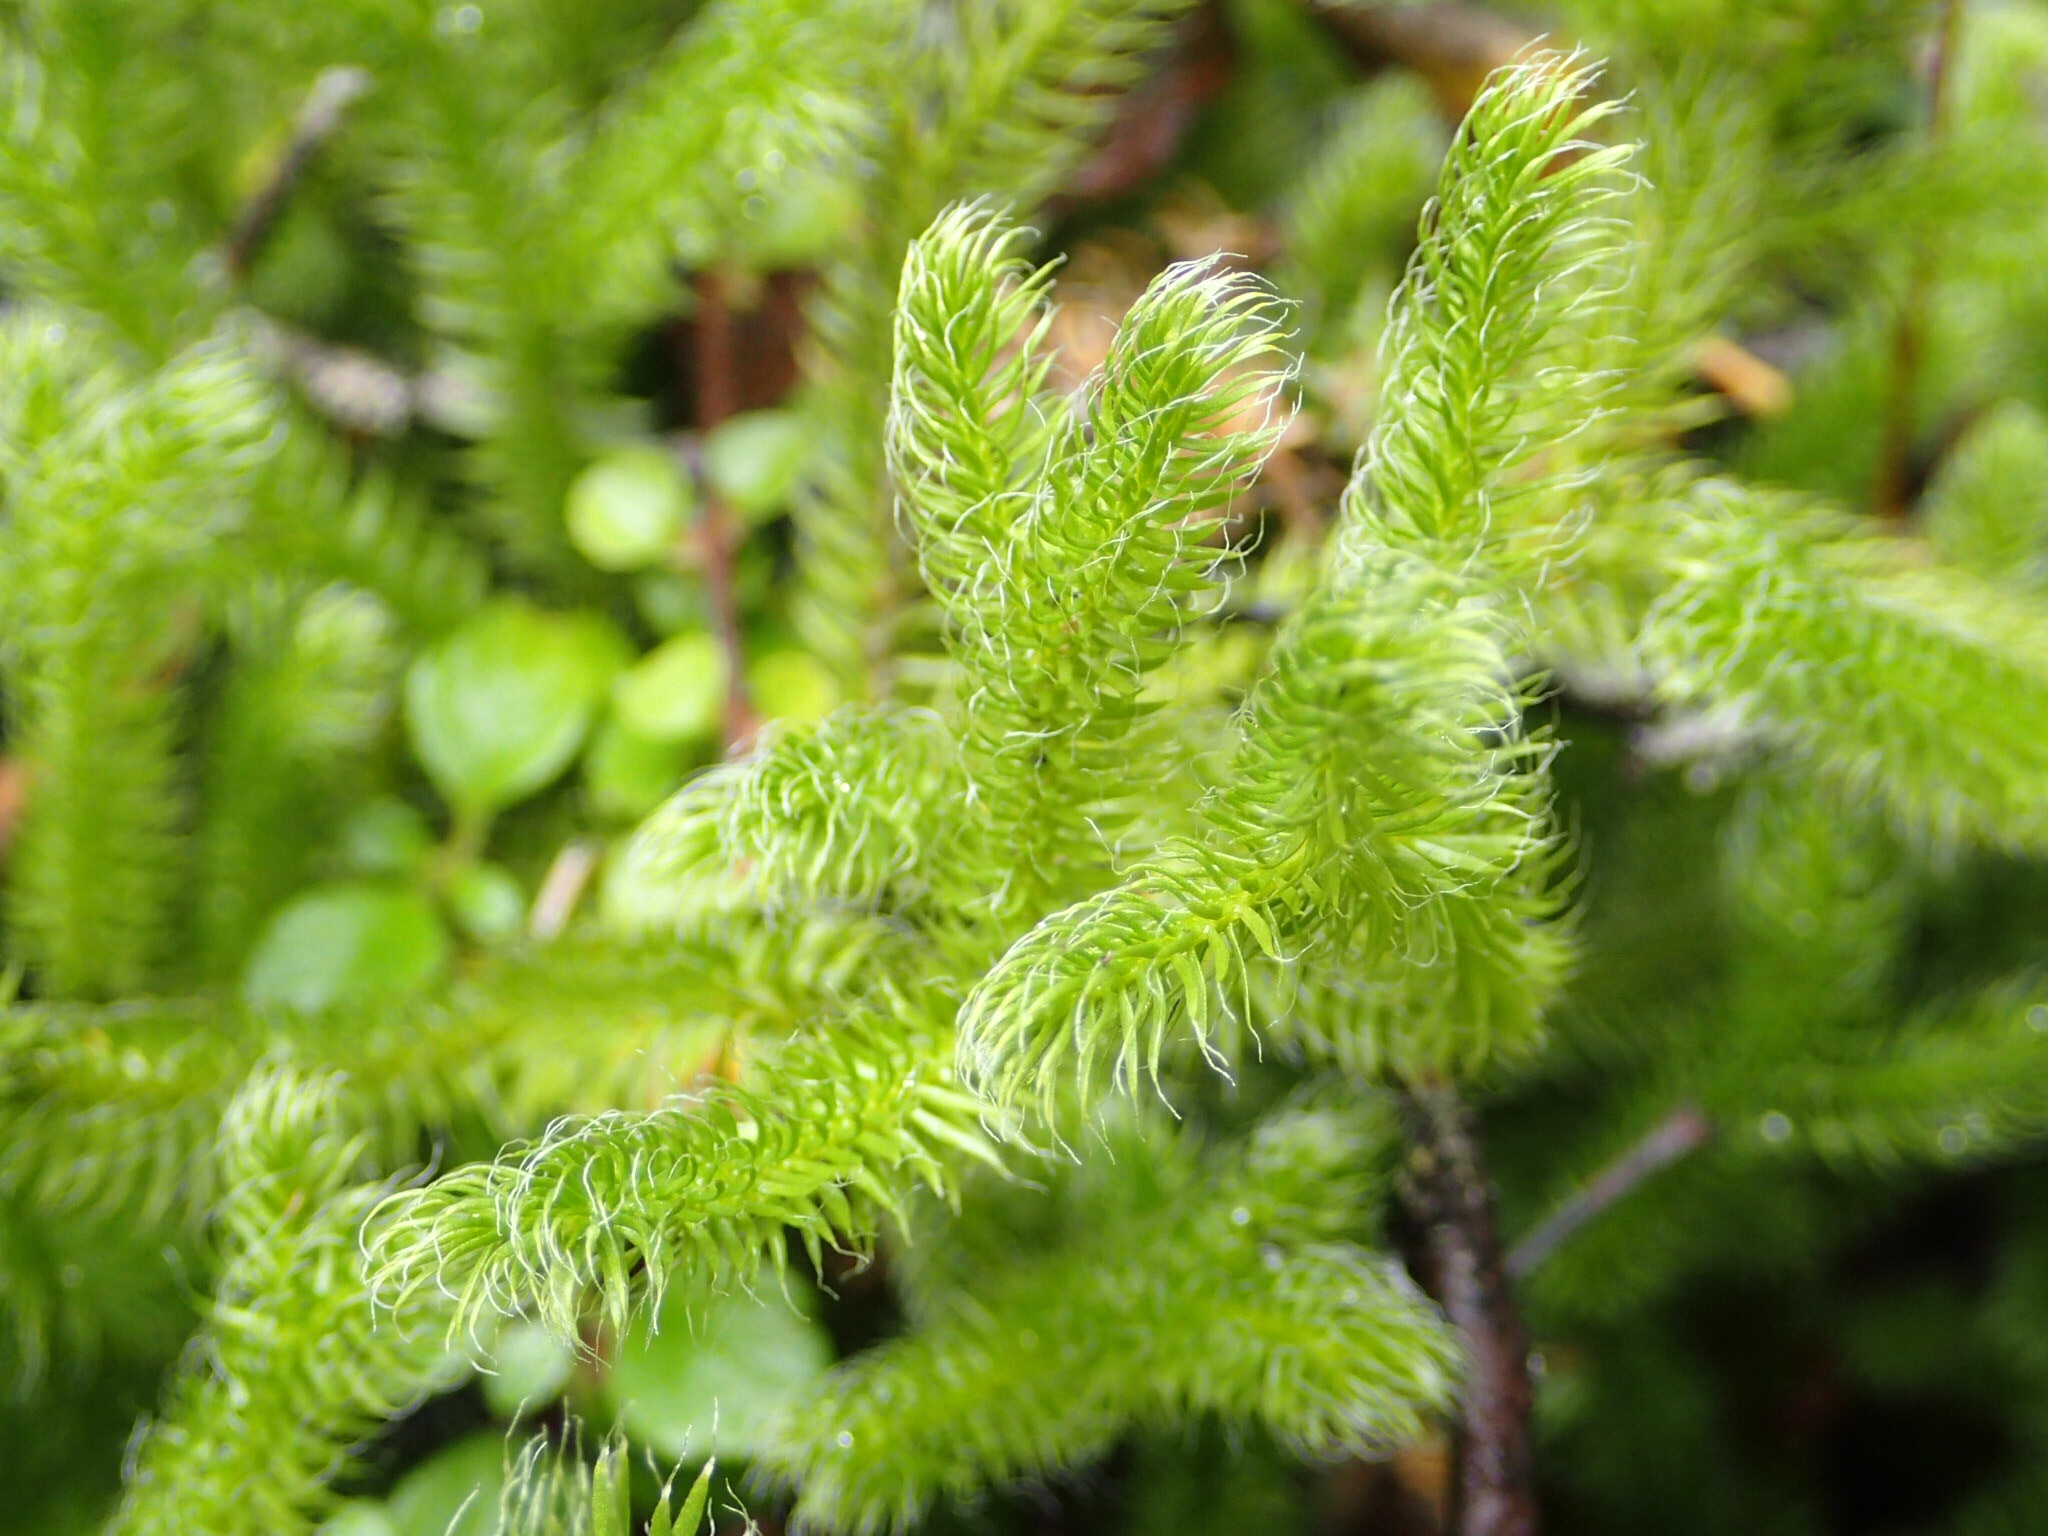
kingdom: Plantae
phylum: Tracheophyta
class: Lycopodiopsida
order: Lycopodiales
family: Lycopodiaceae
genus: Lycopodium
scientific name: Lycopodium clavatum
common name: Stag's-horn clubmoss
